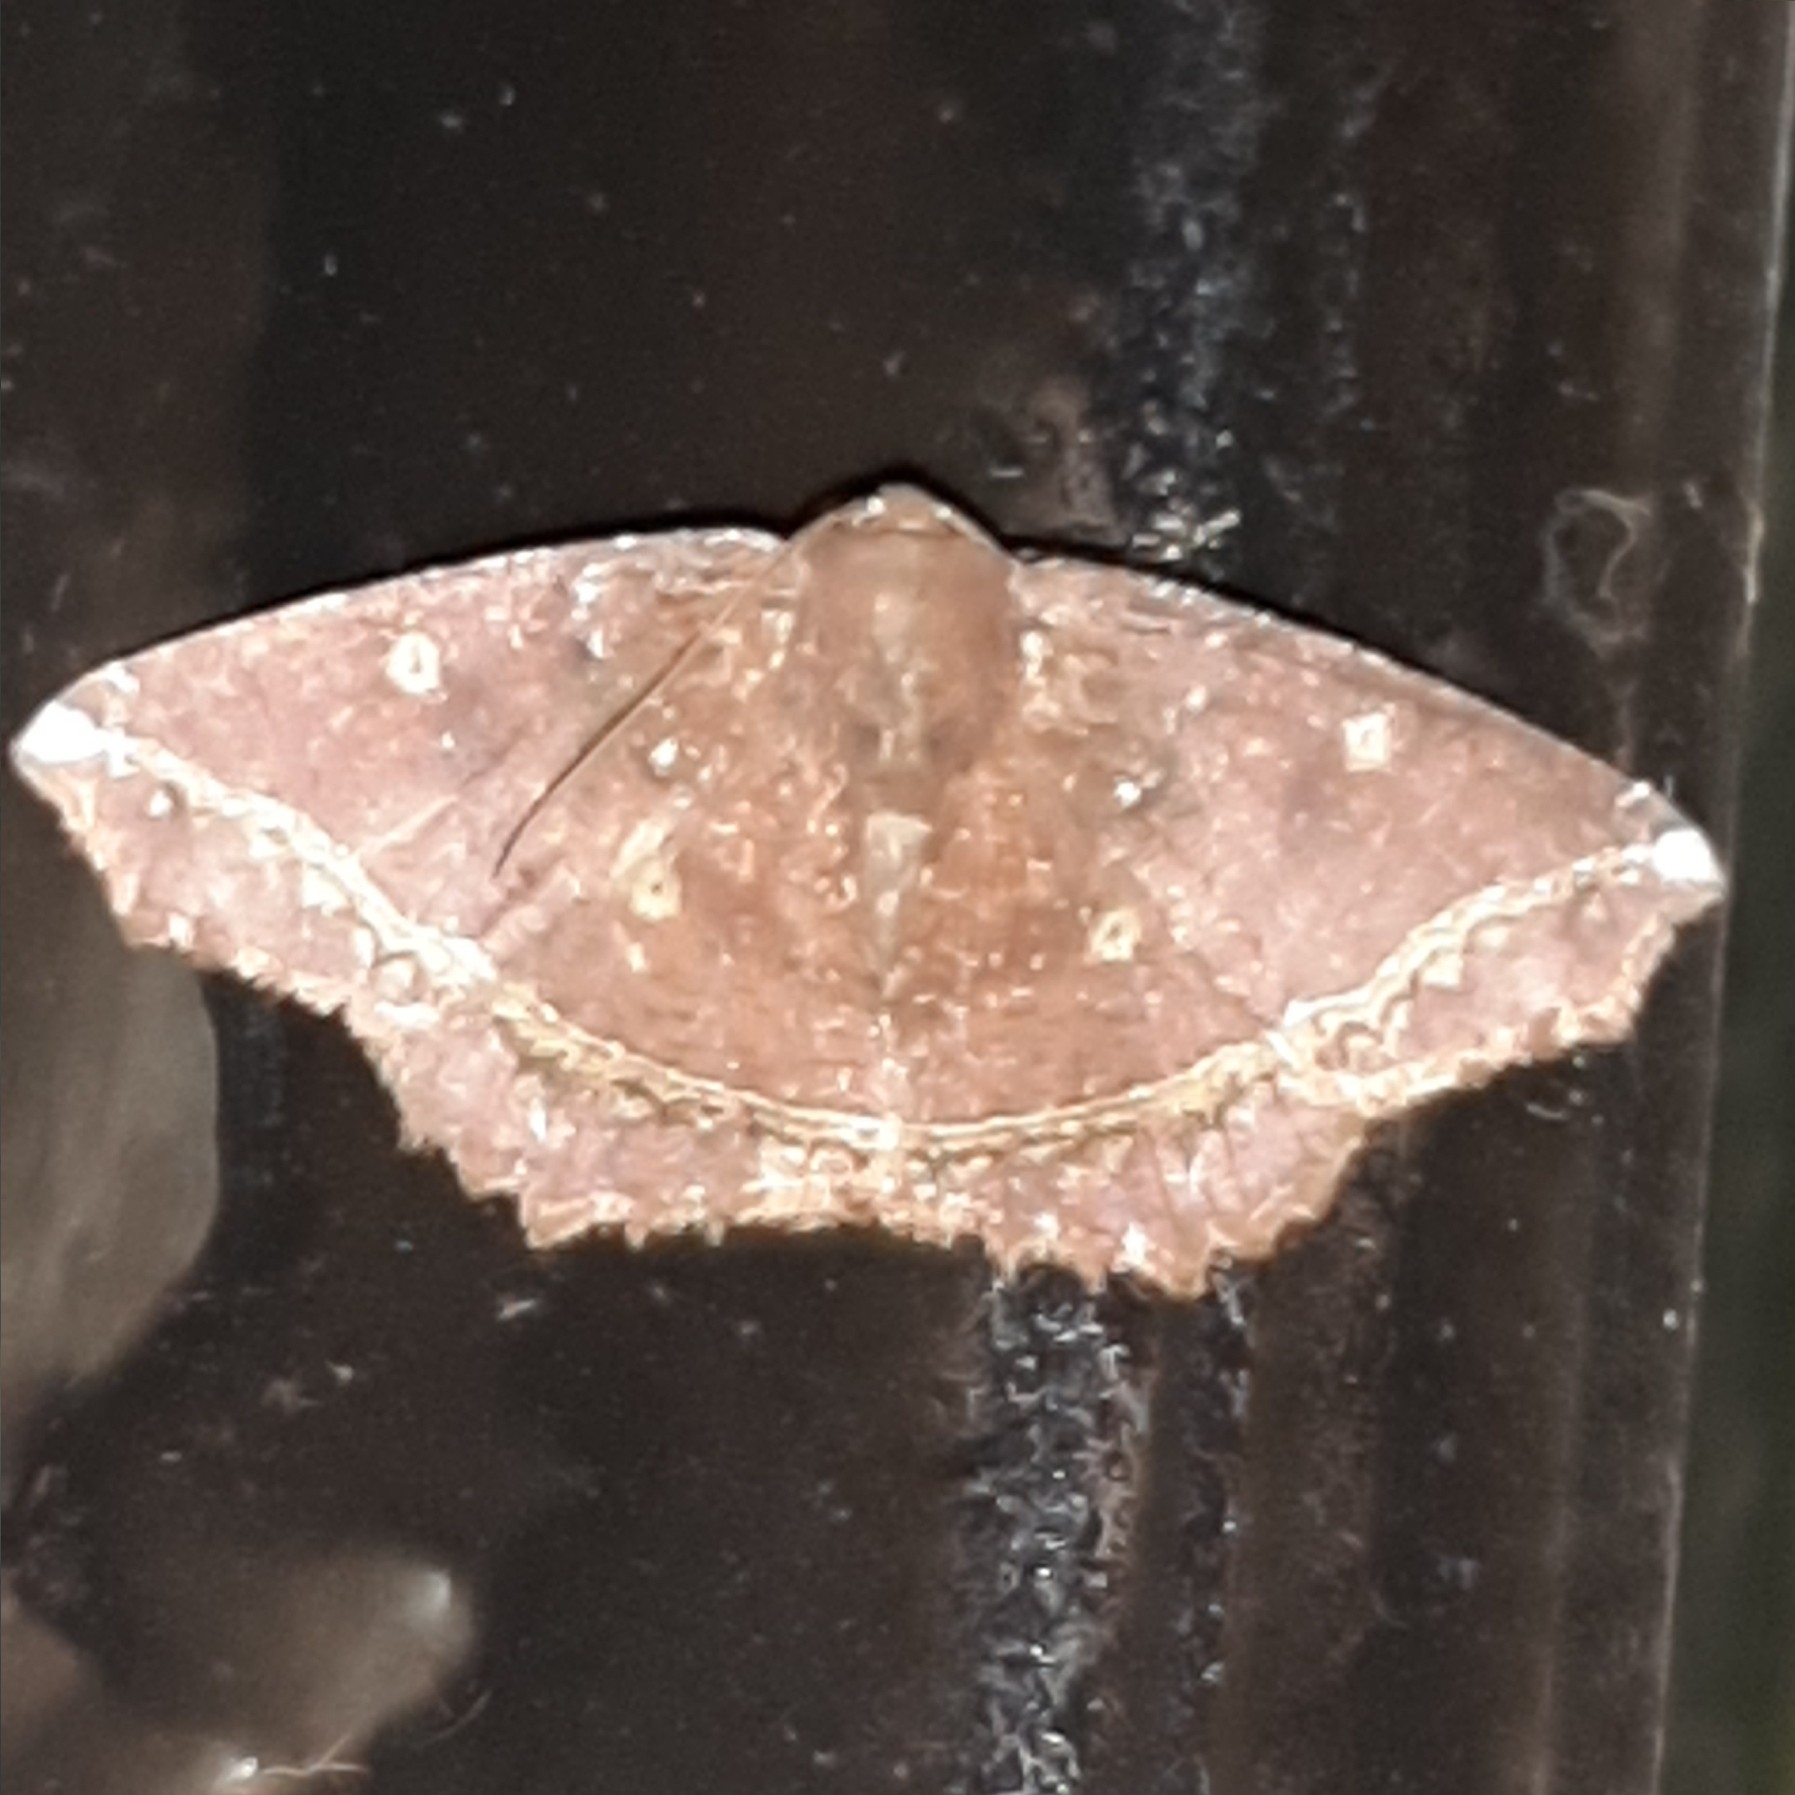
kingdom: Animalia
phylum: Arthropoda
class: Insecta
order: Lepidoptera
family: Geometridae
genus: Synnomos
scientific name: Synnomos firmamentaria
